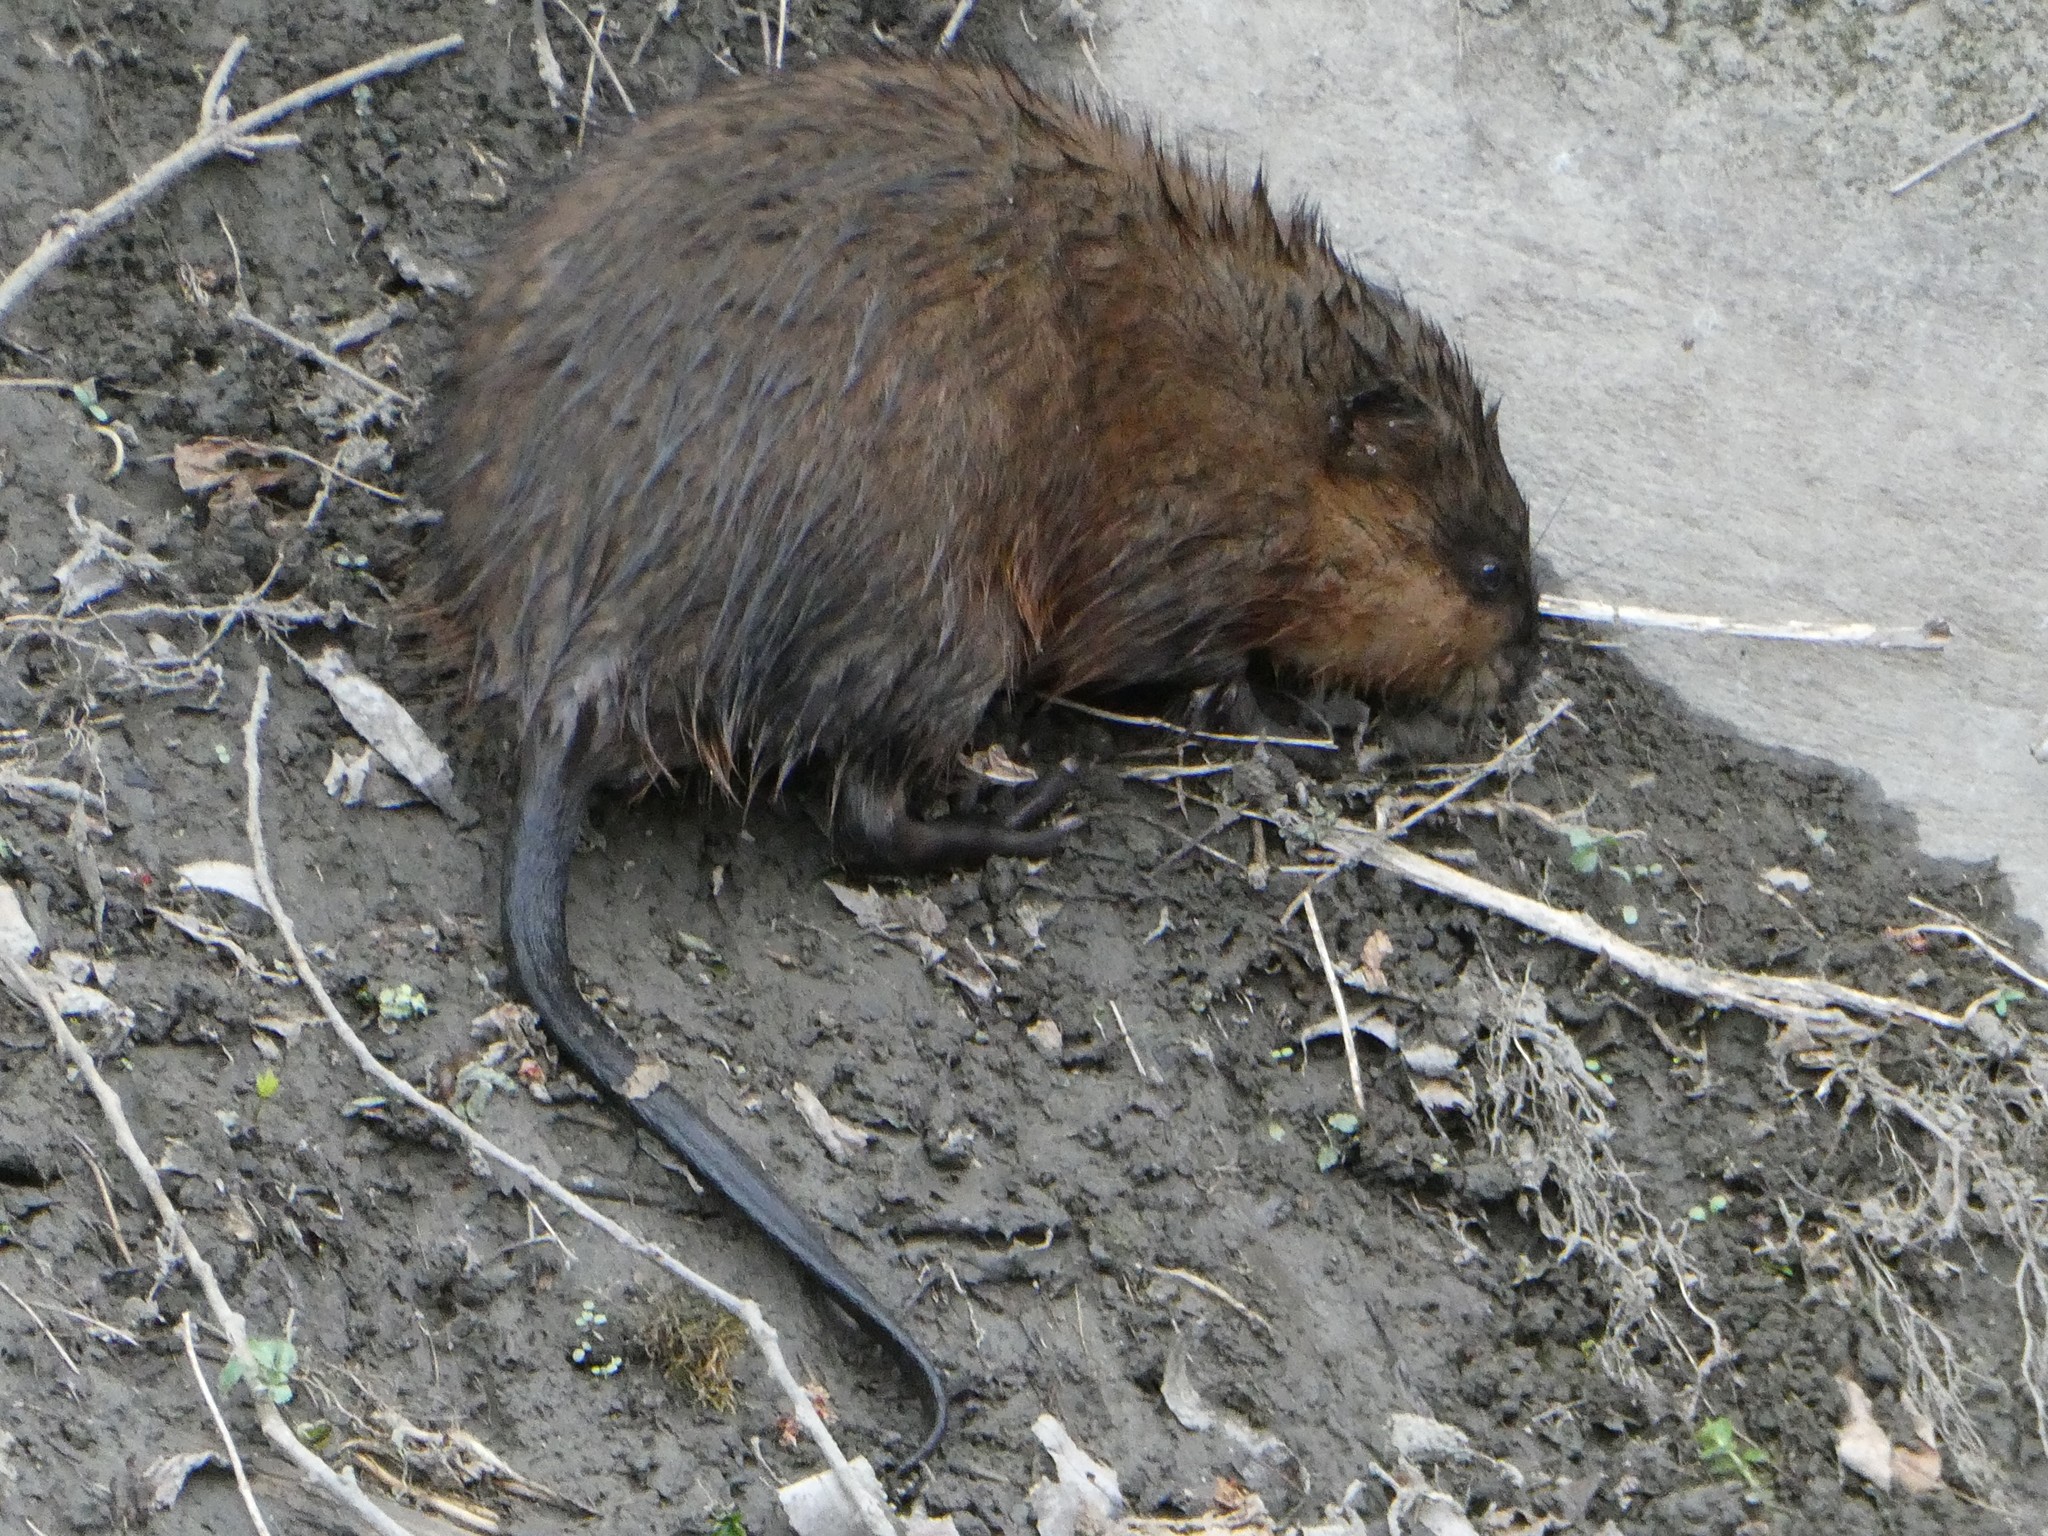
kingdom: Animalia
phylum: Chordata
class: Mammalia
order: Rodentia
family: Cricetidae
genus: Ondatra
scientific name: Ondatra zibethicus
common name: Muskrat
